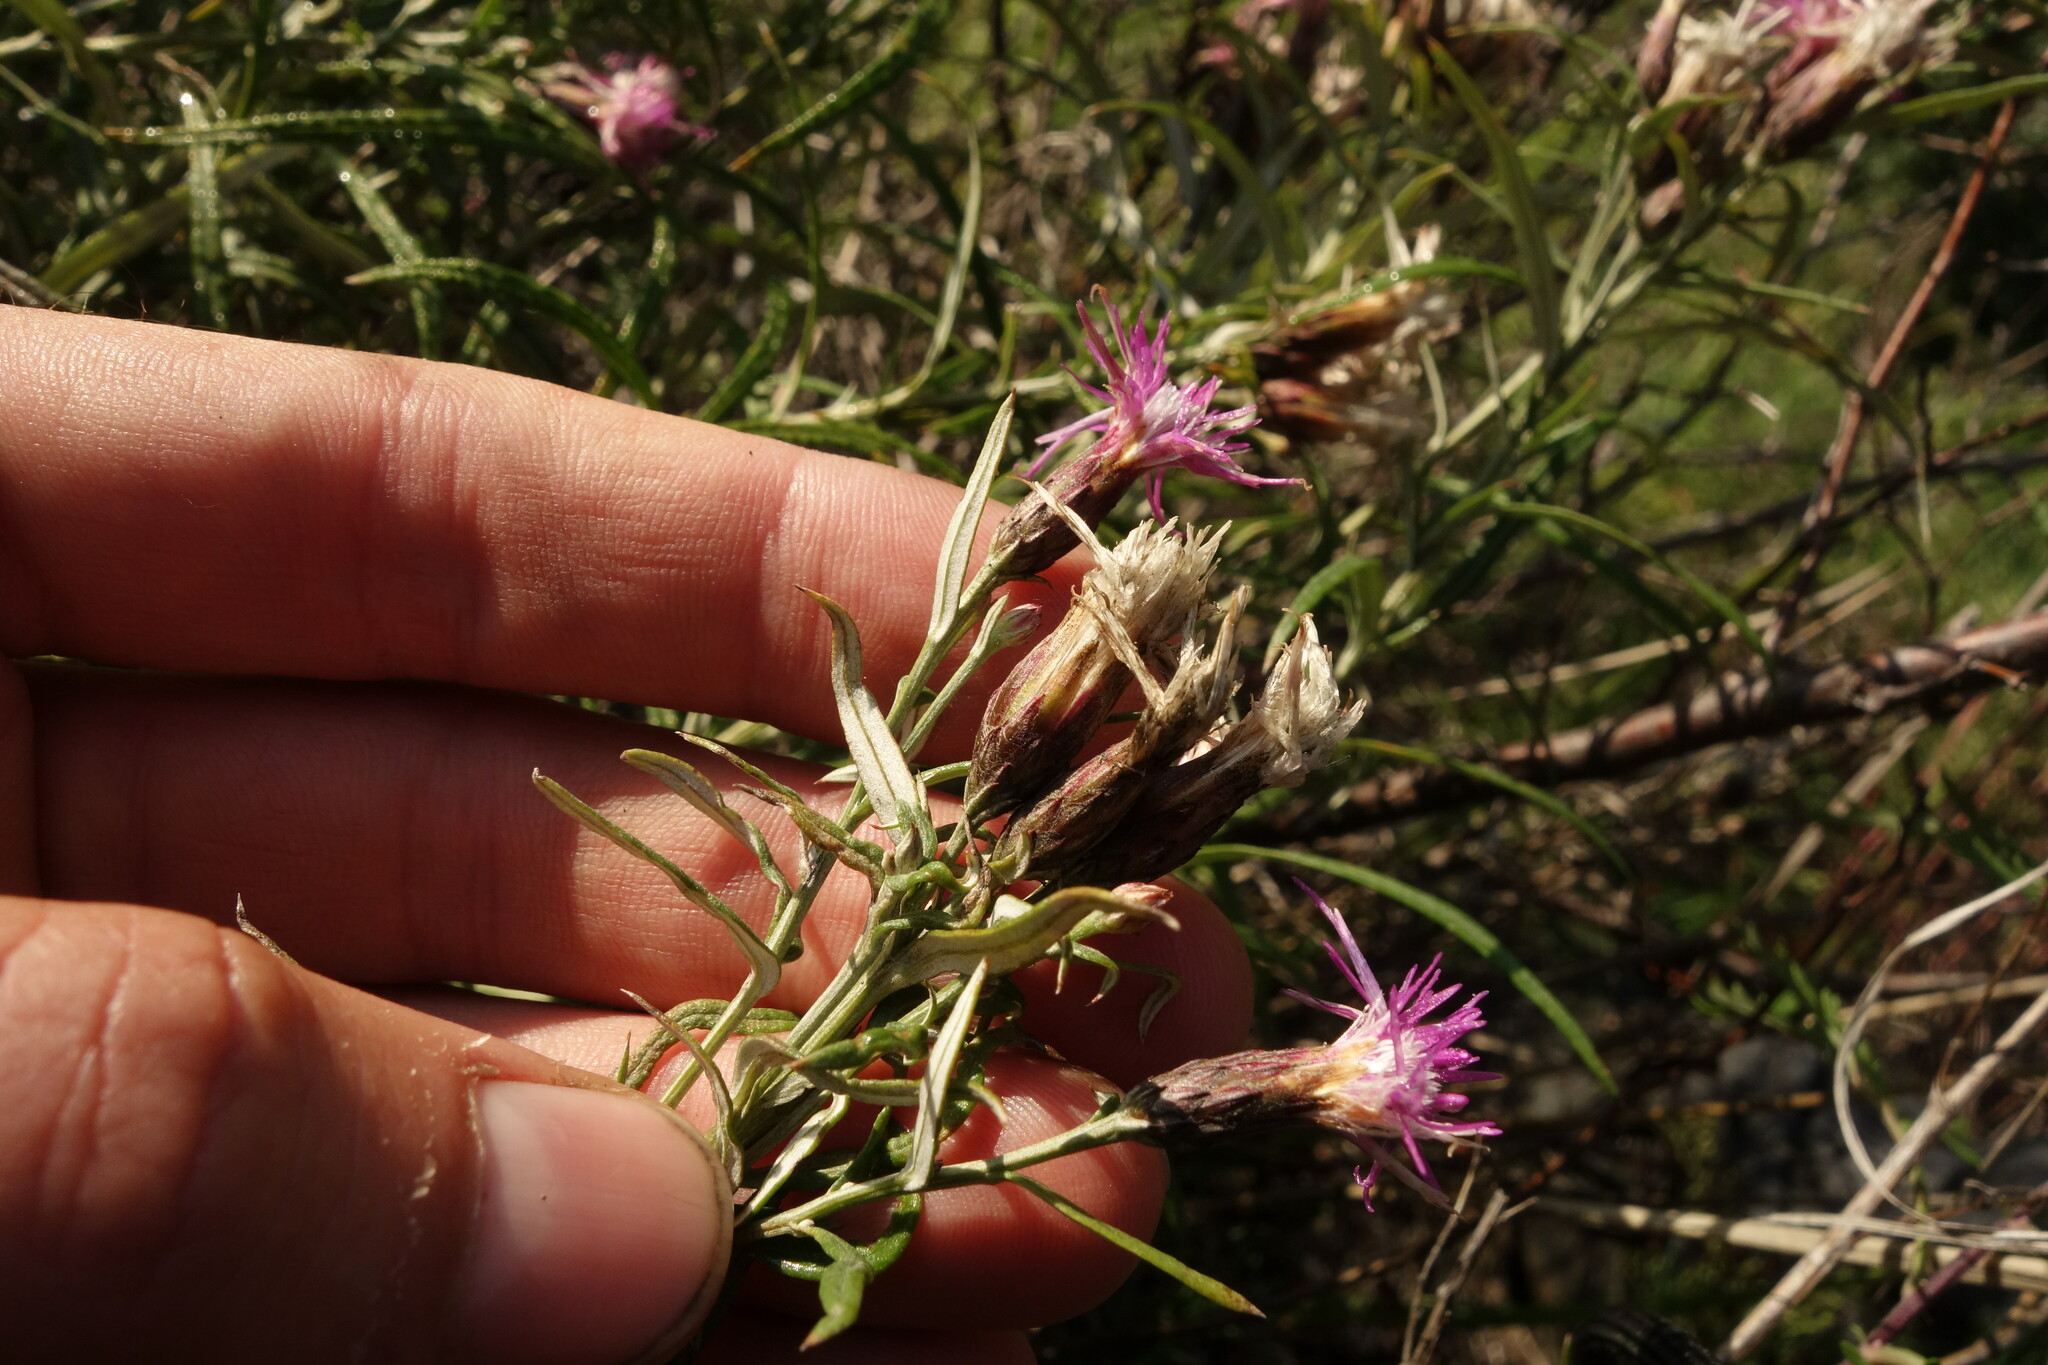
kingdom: Plantae
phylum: Tracheophyta
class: Magnoliopsida
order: Asterales
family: Asteraceae
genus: Saussurea
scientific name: Saussurea salicifolia
